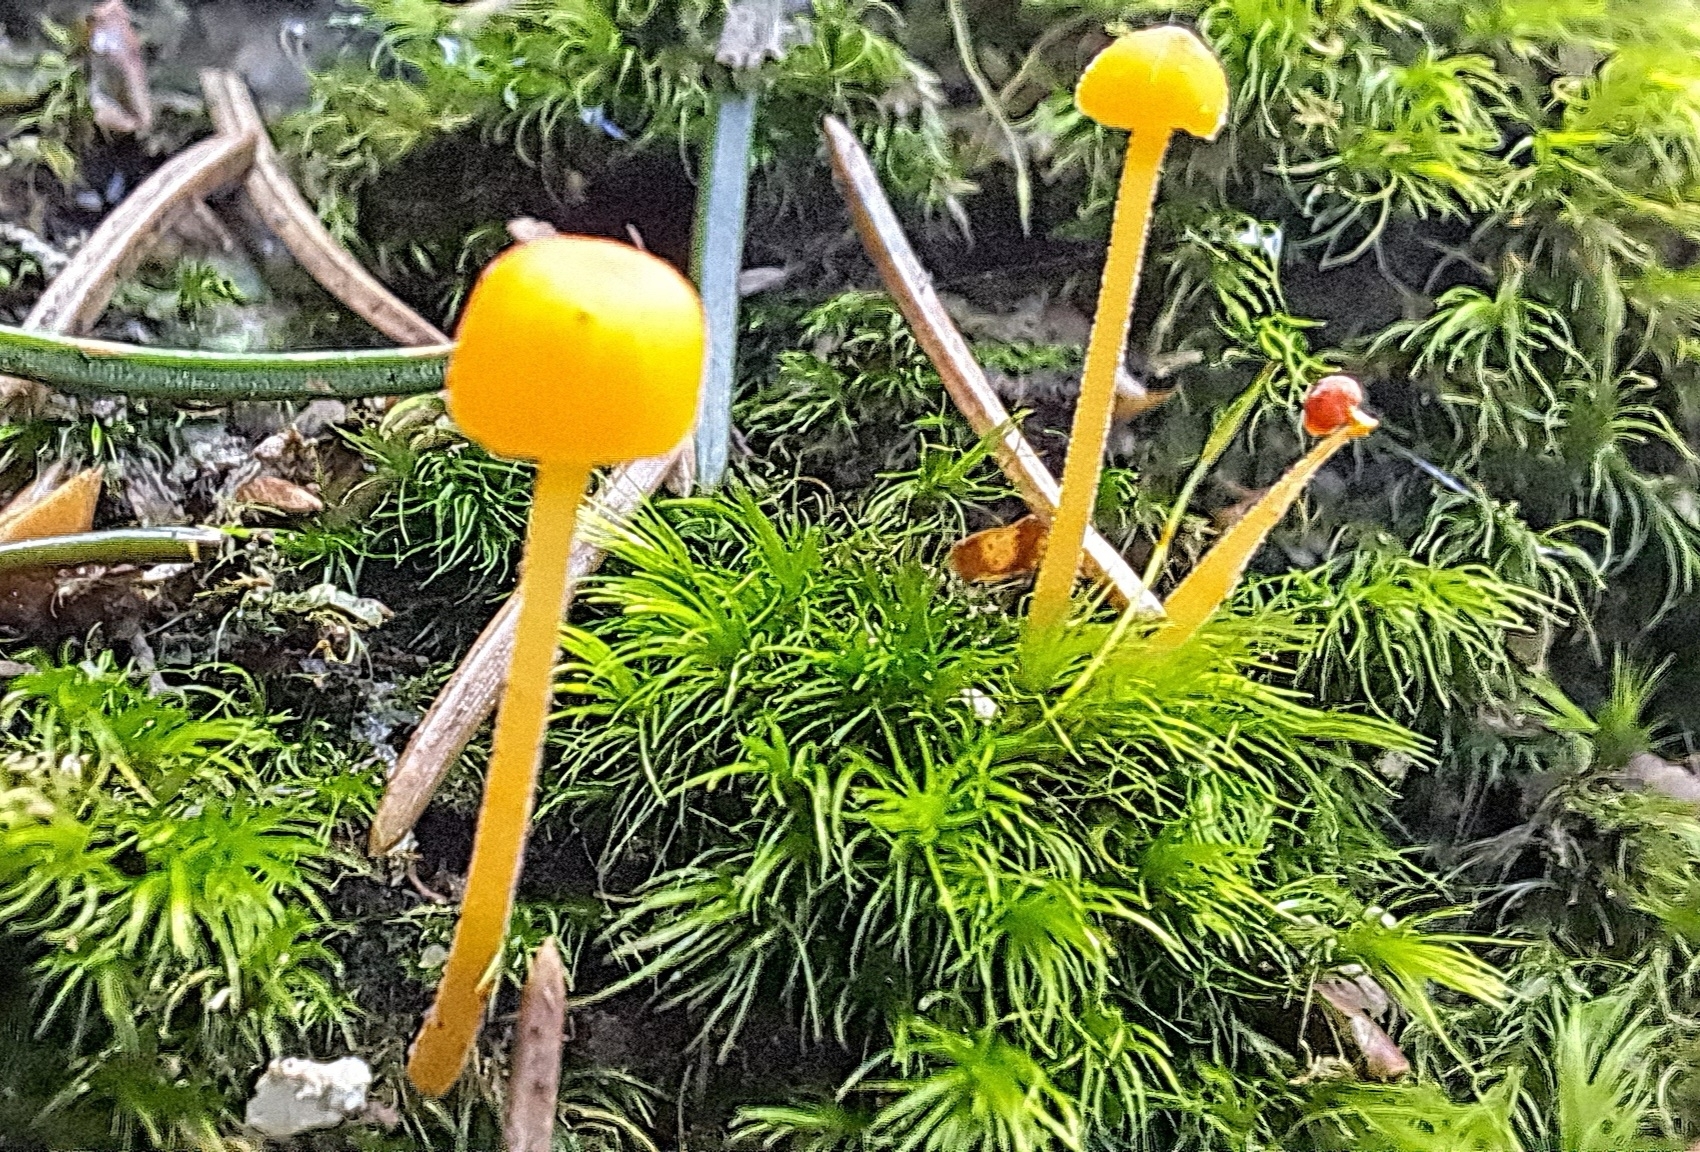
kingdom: Fungi
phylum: Basidiomycota
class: Agaricomycetes
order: Hymenochaetales
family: Rickenellaceae
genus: Rickenella
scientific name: Rickenella fibula
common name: Orange mosscap
